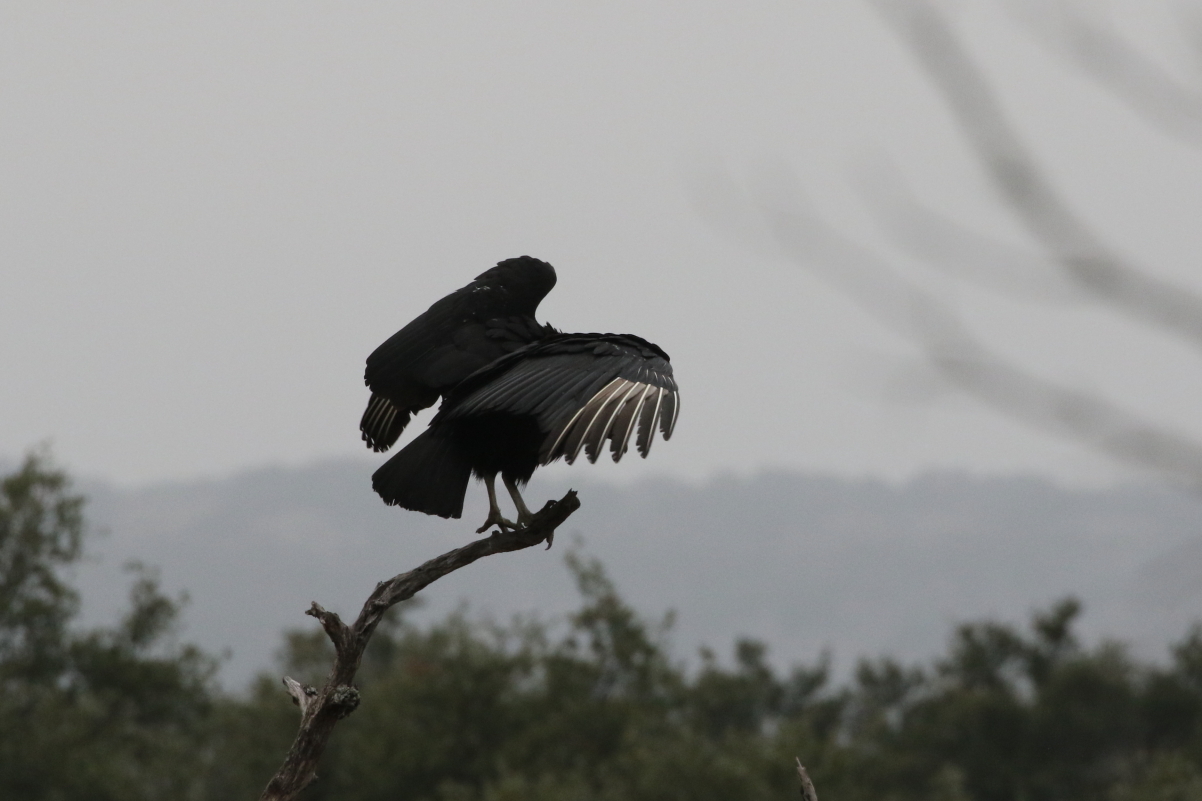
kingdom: Animalia
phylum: Chordata
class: Aves
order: Accipitriformes
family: Cathartidae
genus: Coragyps
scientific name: Coragyps atratus
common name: Black vulture
